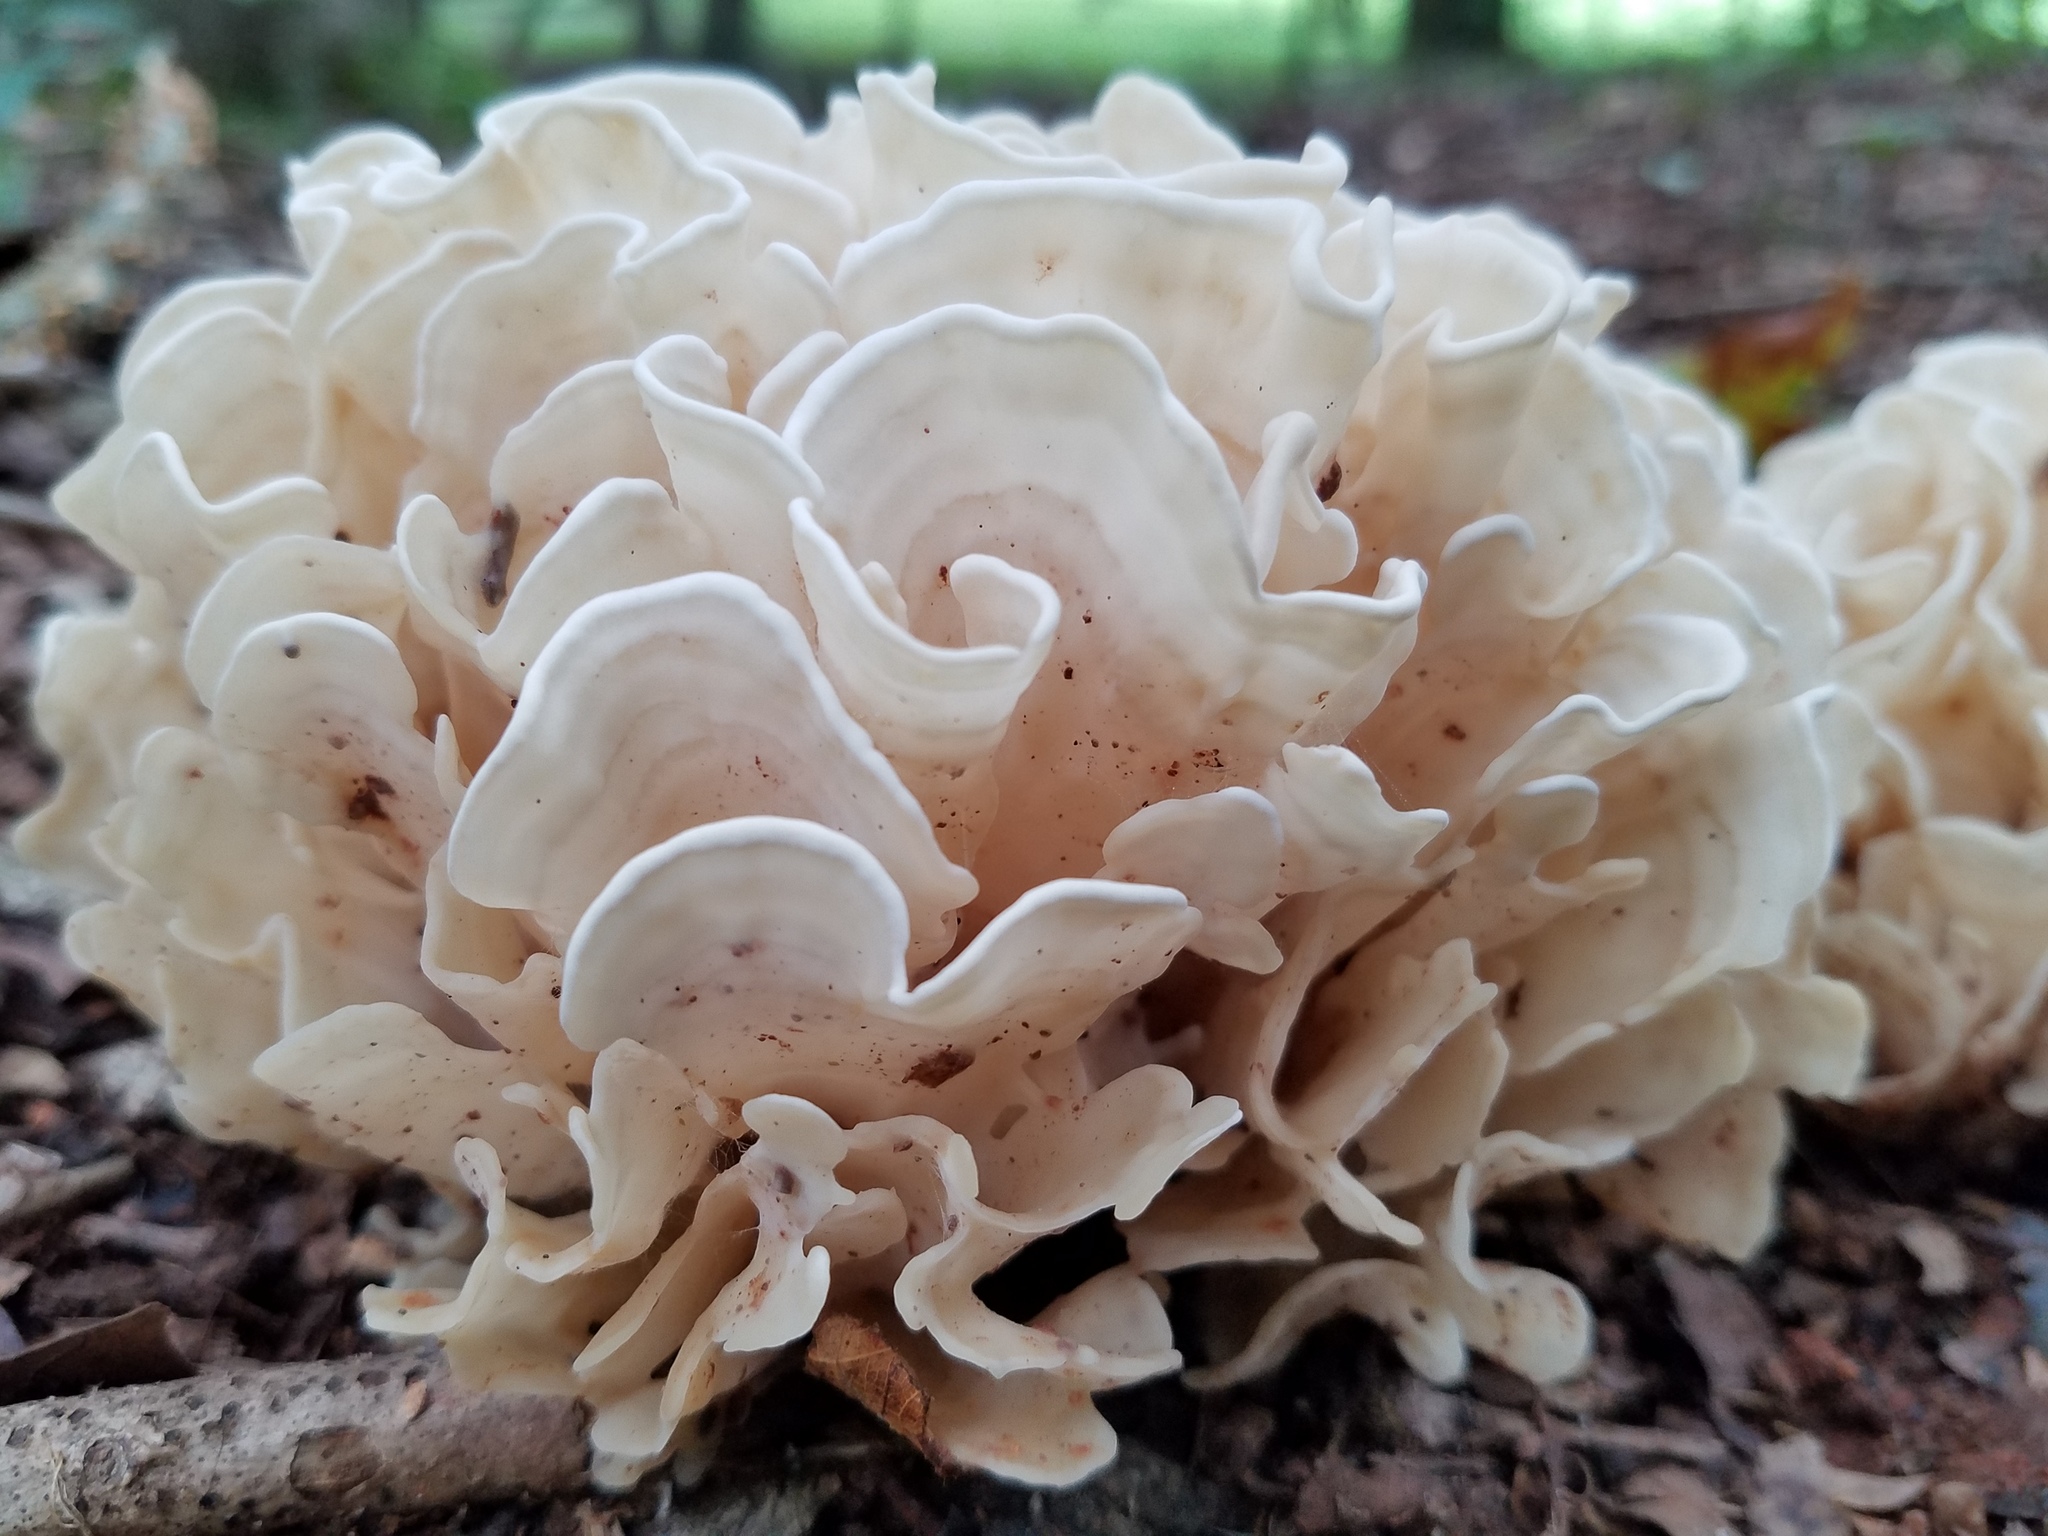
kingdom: Fungi
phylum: Basidiomycota
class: Agaricomycetes
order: Polyporales
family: Sparassidaceae
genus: Sparassis
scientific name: Sparassis spathulata
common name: Eastern cauliflower mushroom
